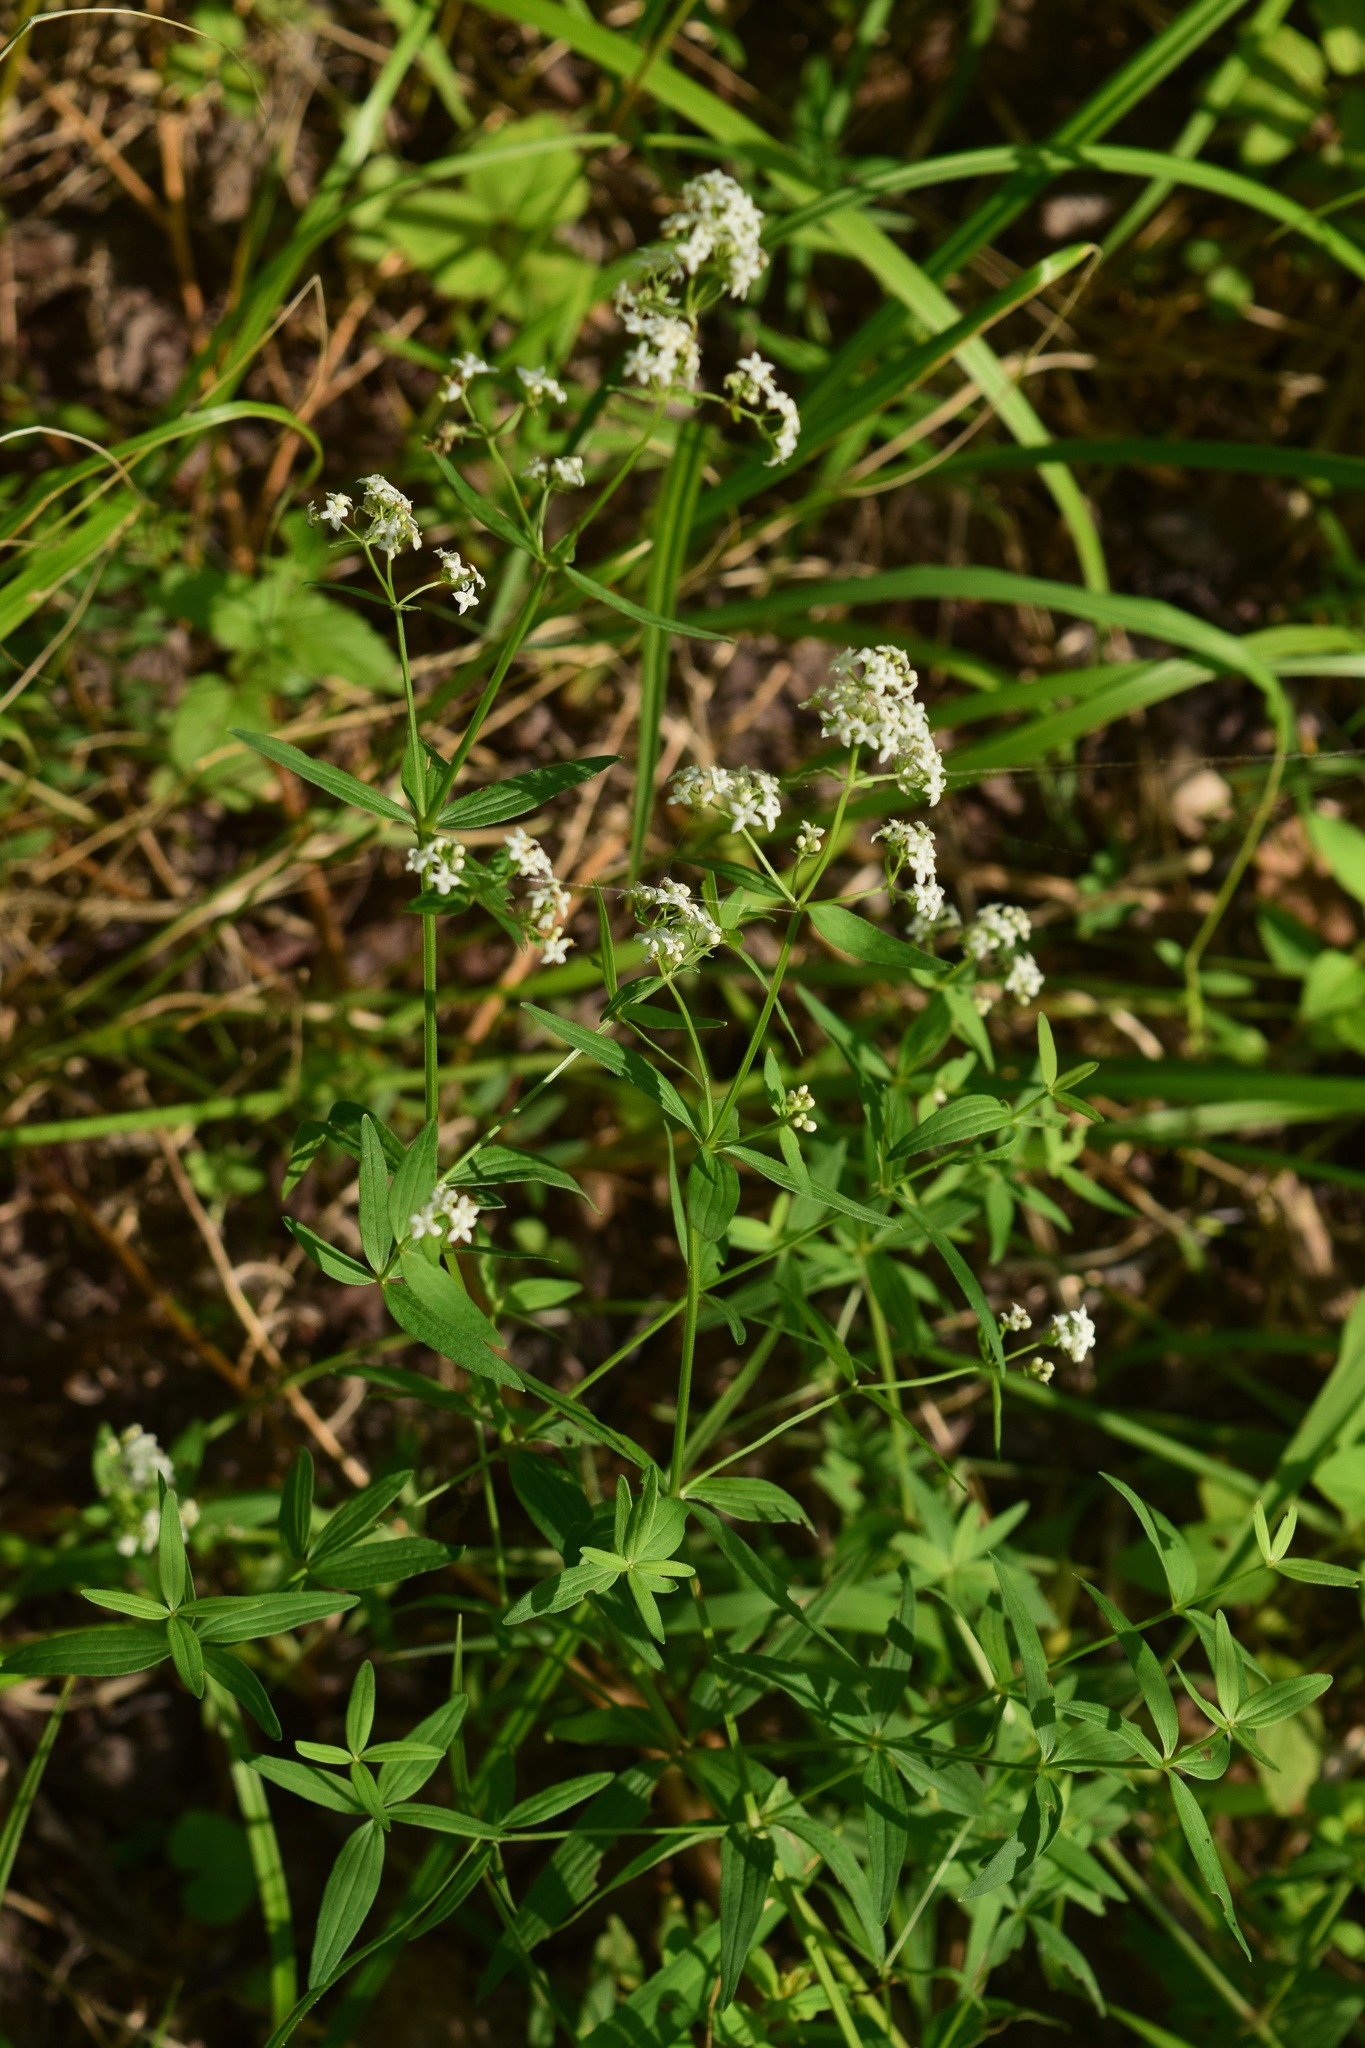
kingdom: Plantae
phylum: Tracheophyta
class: Magnoliopsida
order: Gentianales
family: Rubiaceae
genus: Galium
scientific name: Galium boreale
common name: Northern bedstraw
